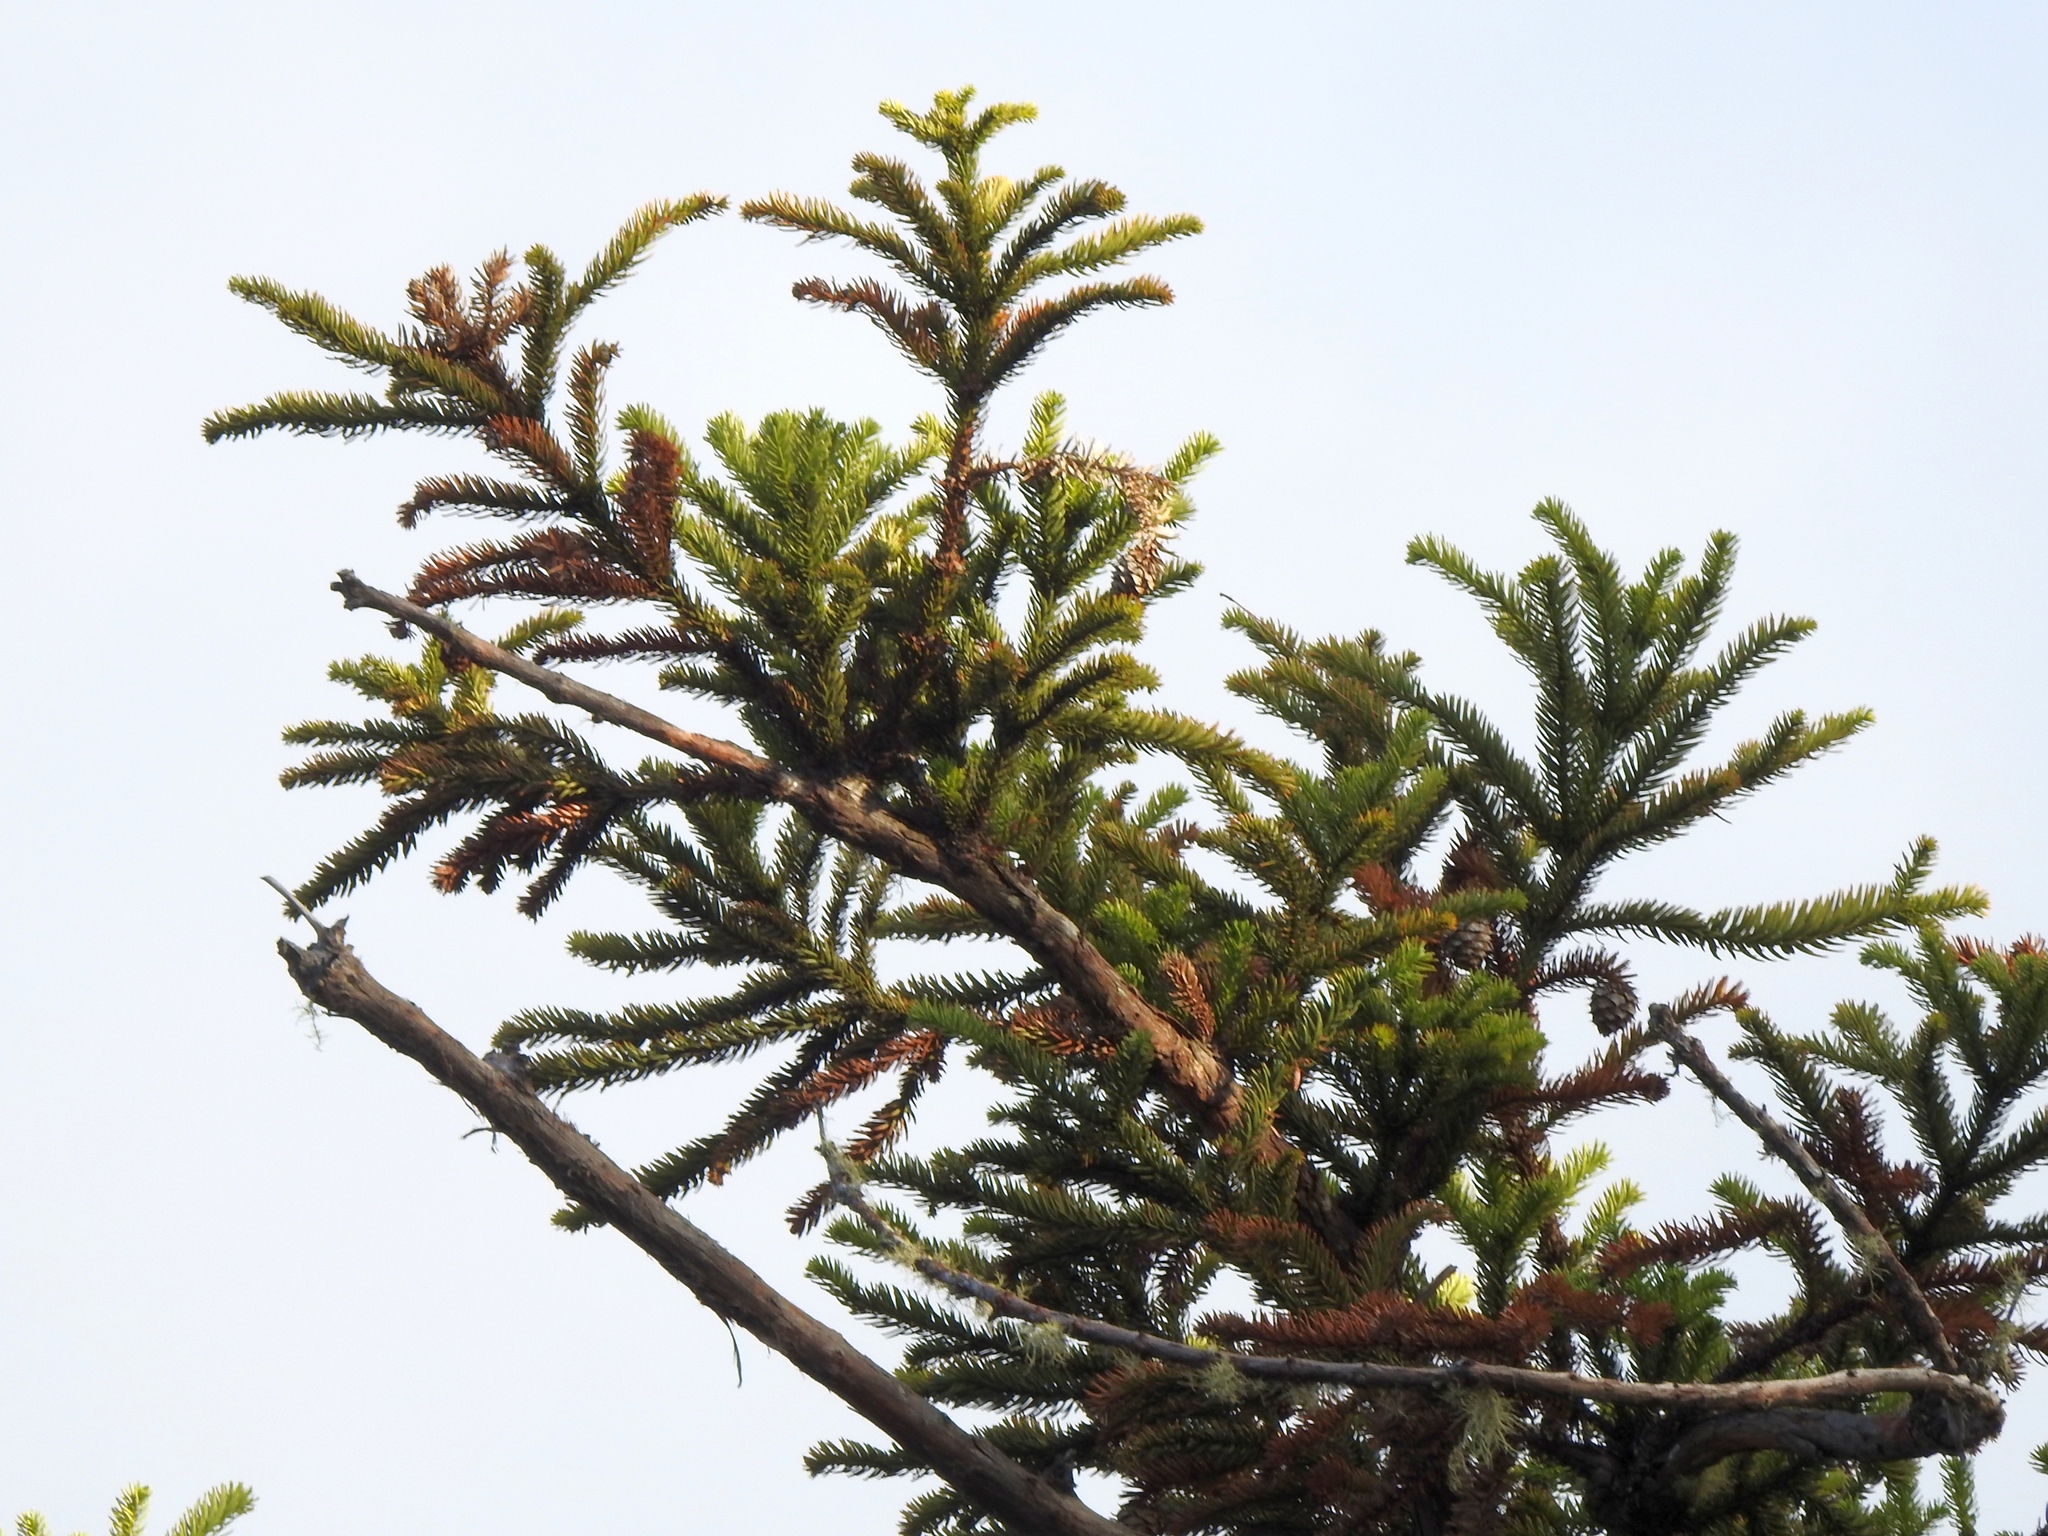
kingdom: Plantae
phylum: Tracheophyta
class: Pinopsida
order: Pinales
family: Cupressaceae
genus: Cunninghamia
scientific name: Cunninghamia konishii
